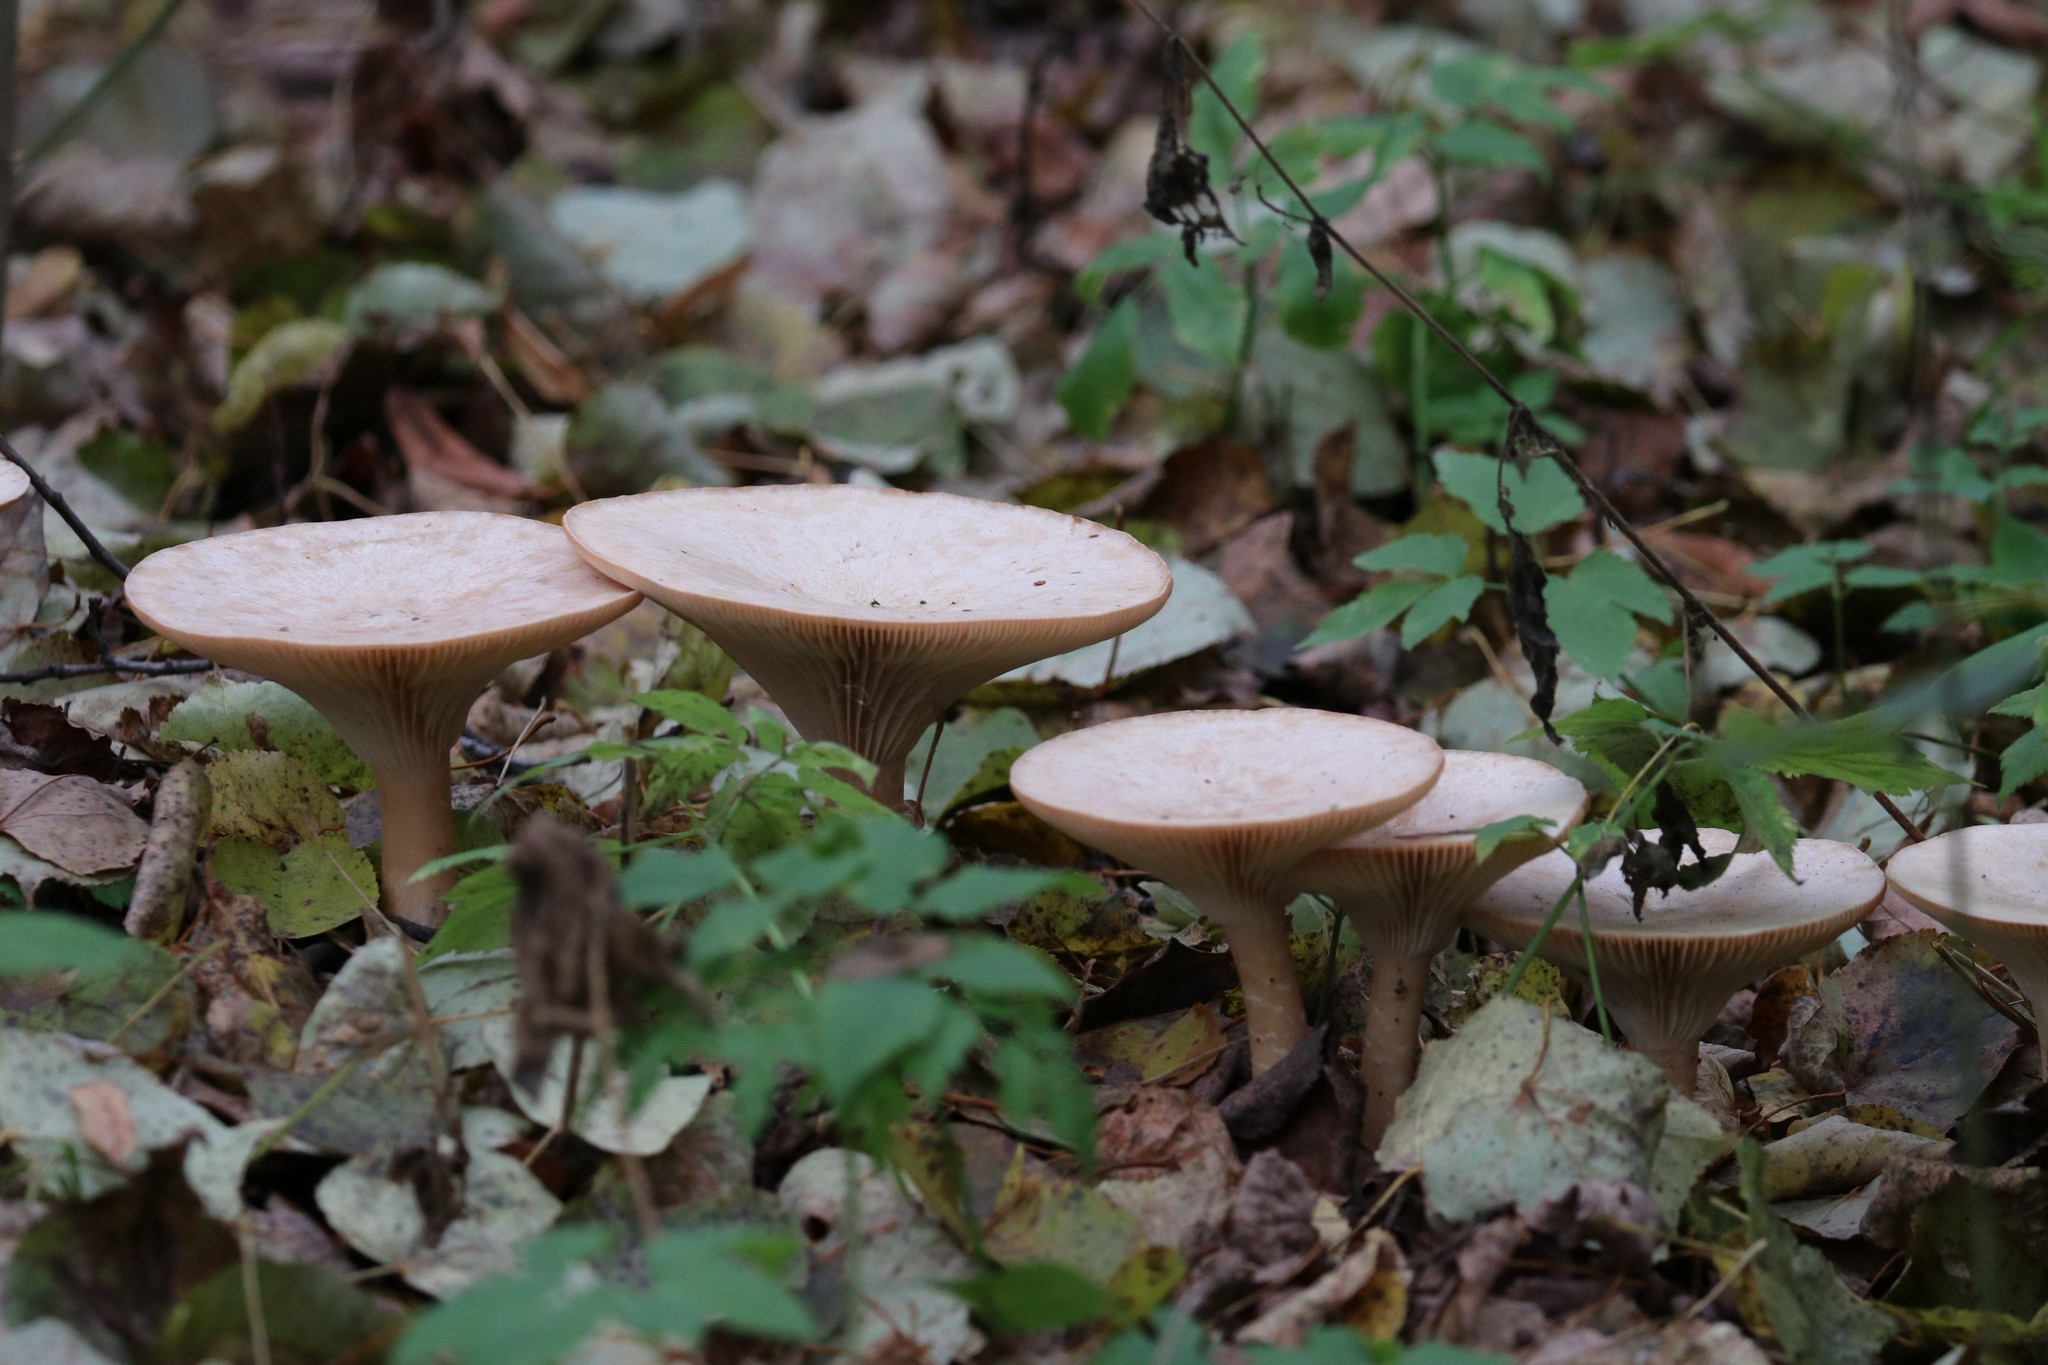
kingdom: Fungi
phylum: Basidiomycota
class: Agaricomycetes
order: Agaricales
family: Tricholomataceae
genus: Infundibulicybe
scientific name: Infundibulicybe gibba
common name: Common funnel
